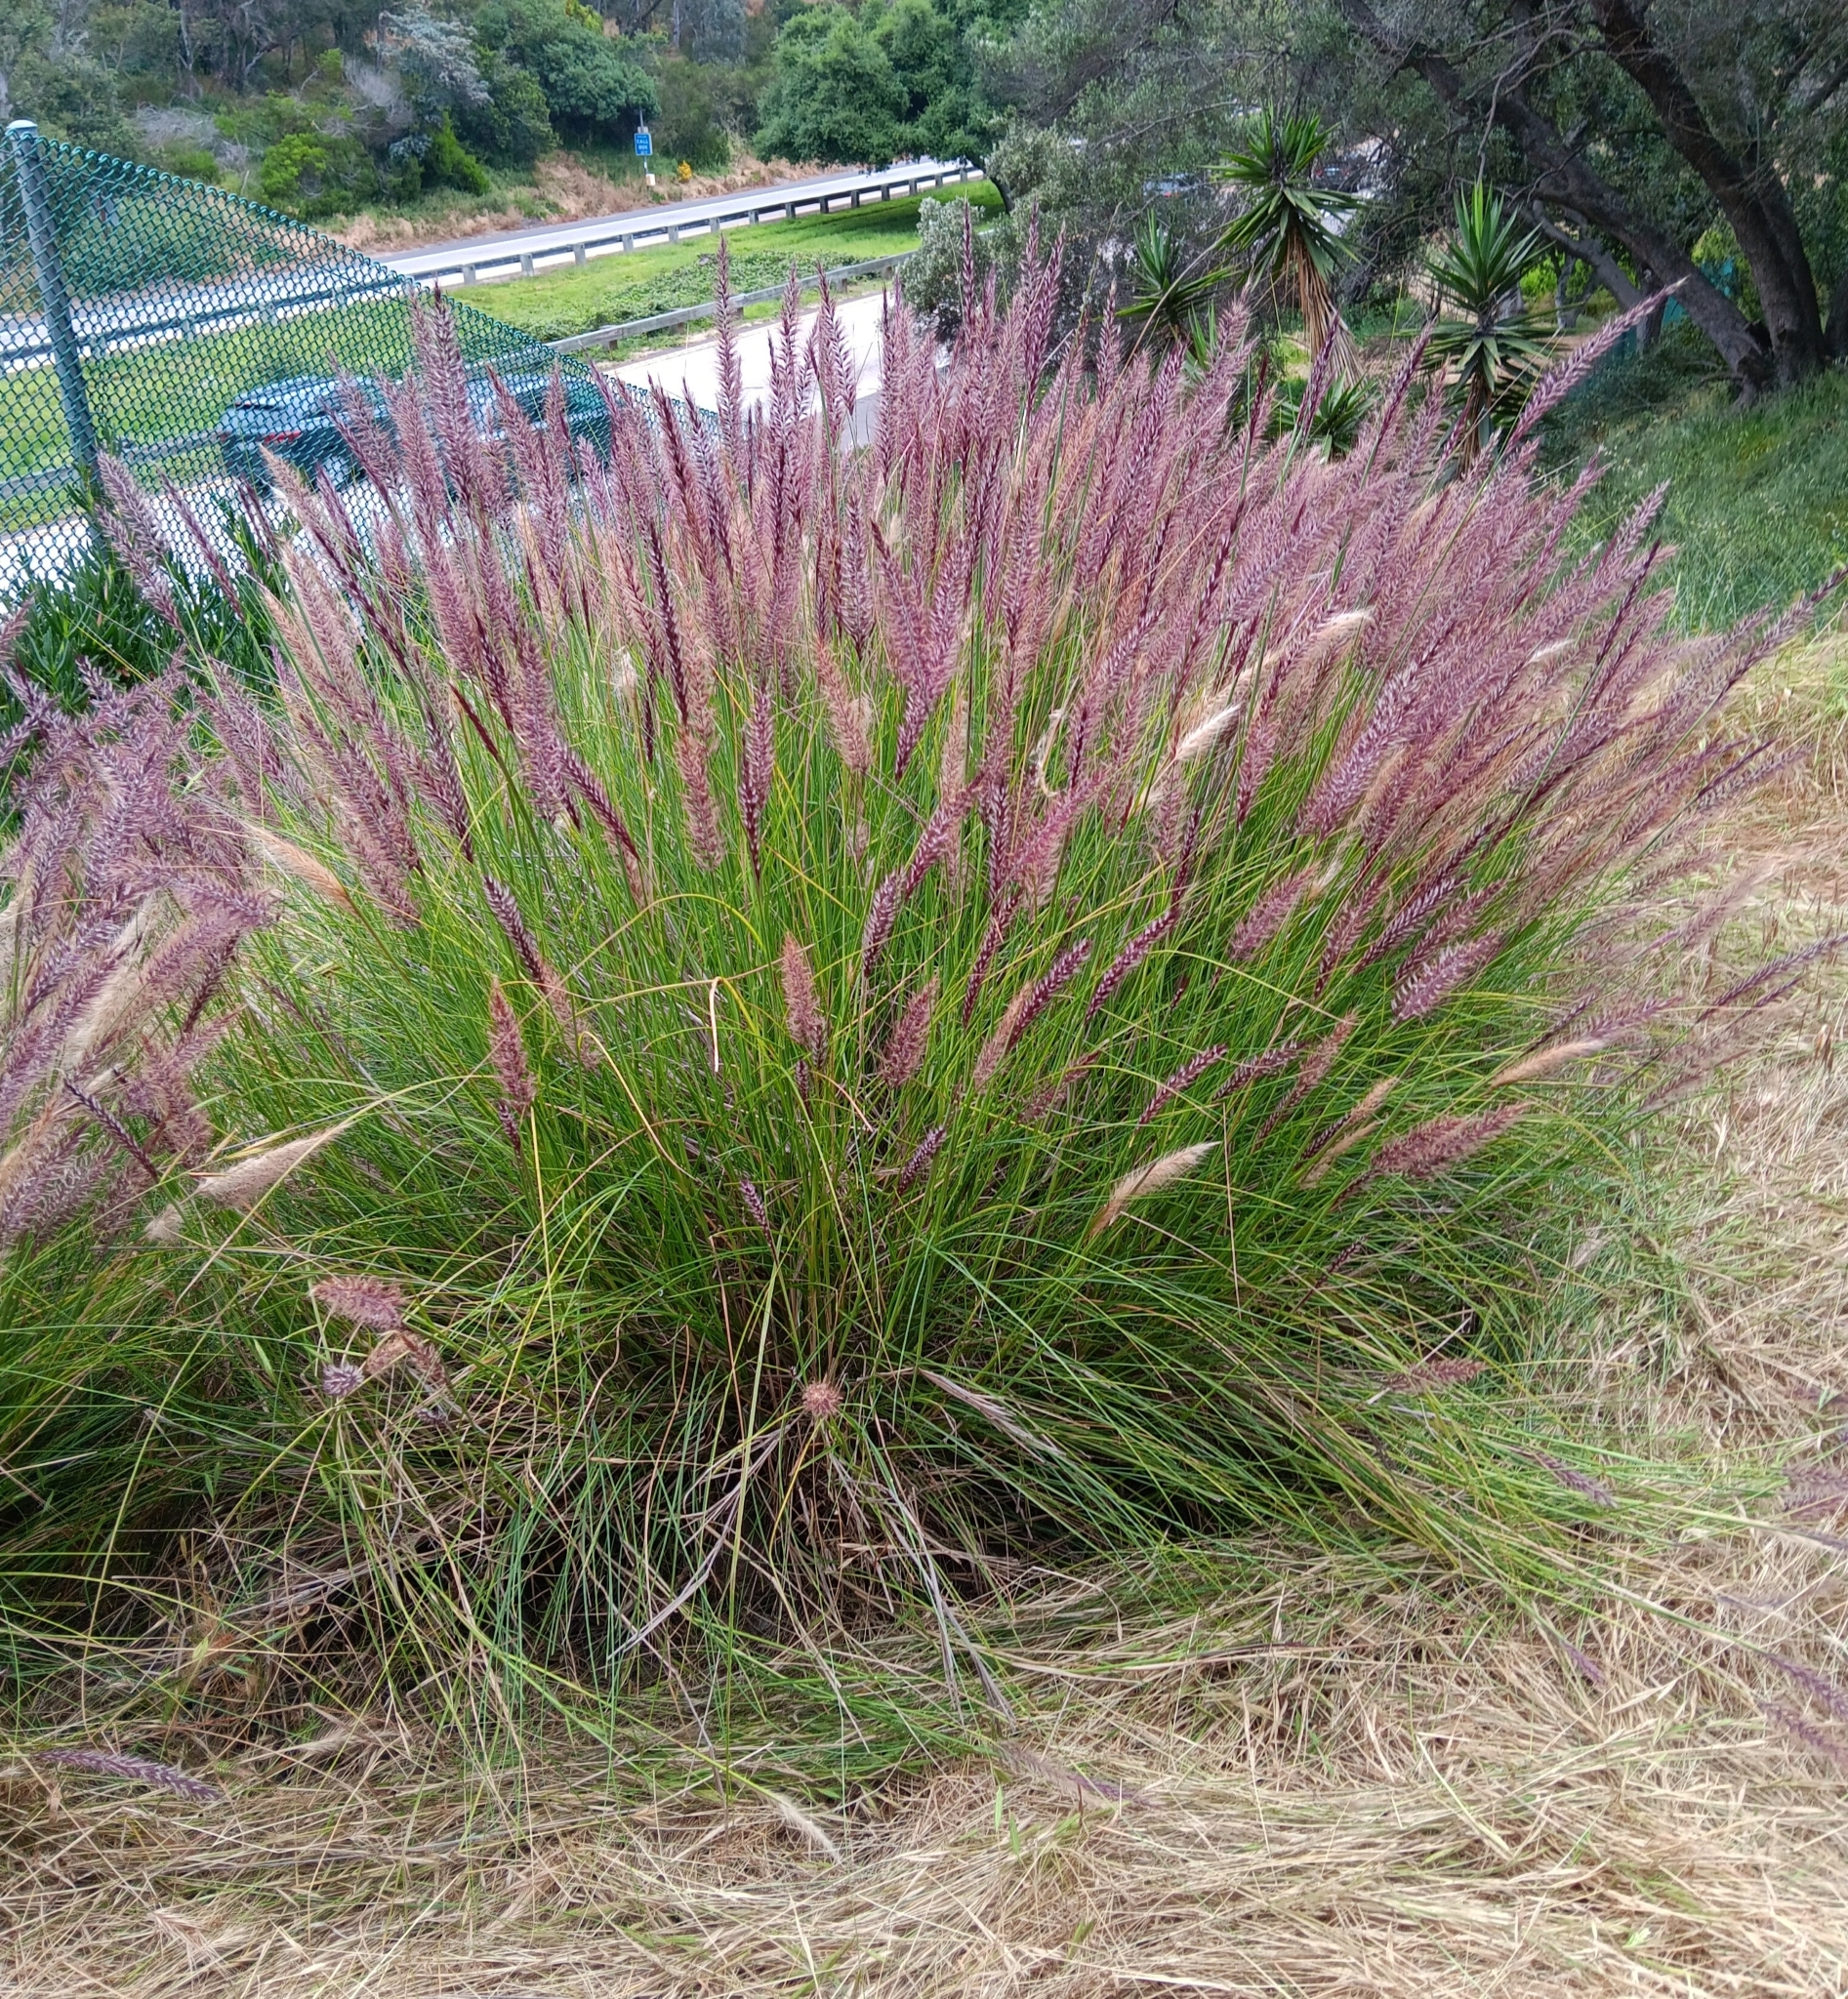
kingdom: Plantae
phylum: Tracheophyta
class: Liliopsida
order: Poales
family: Poaceae
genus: Cenchrus
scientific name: Cenchrus setaceus
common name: Crimson fountaingrass
